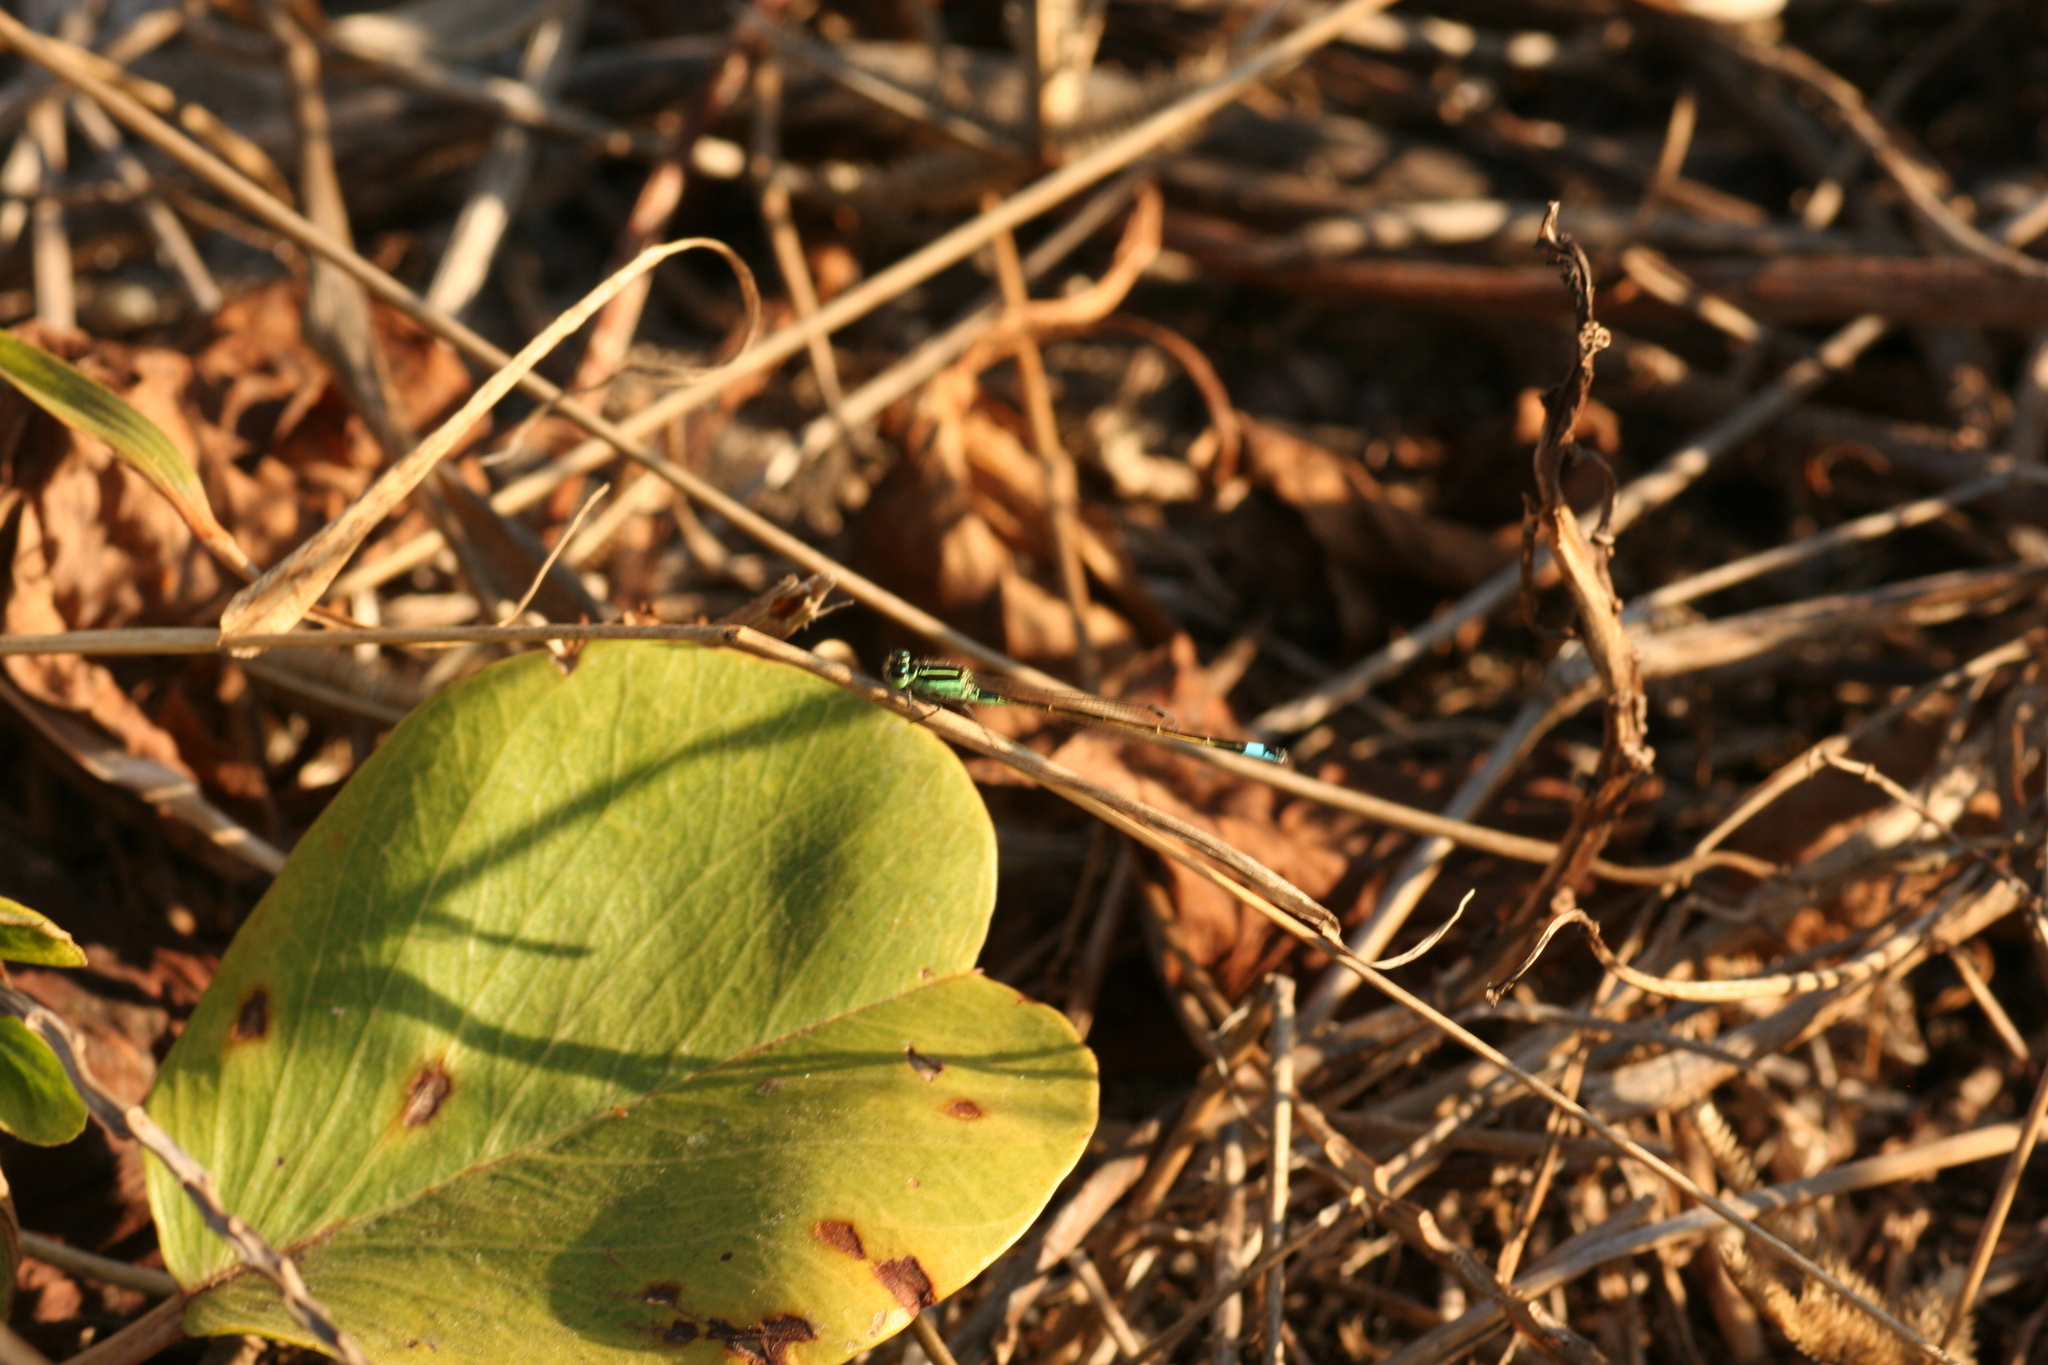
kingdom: Animalia
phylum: Arthropoda
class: Insecta
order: Odonata
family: Coenagrionidae
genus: Ischnura
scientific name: Ischnura ramburii
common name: Rambur's forktail
